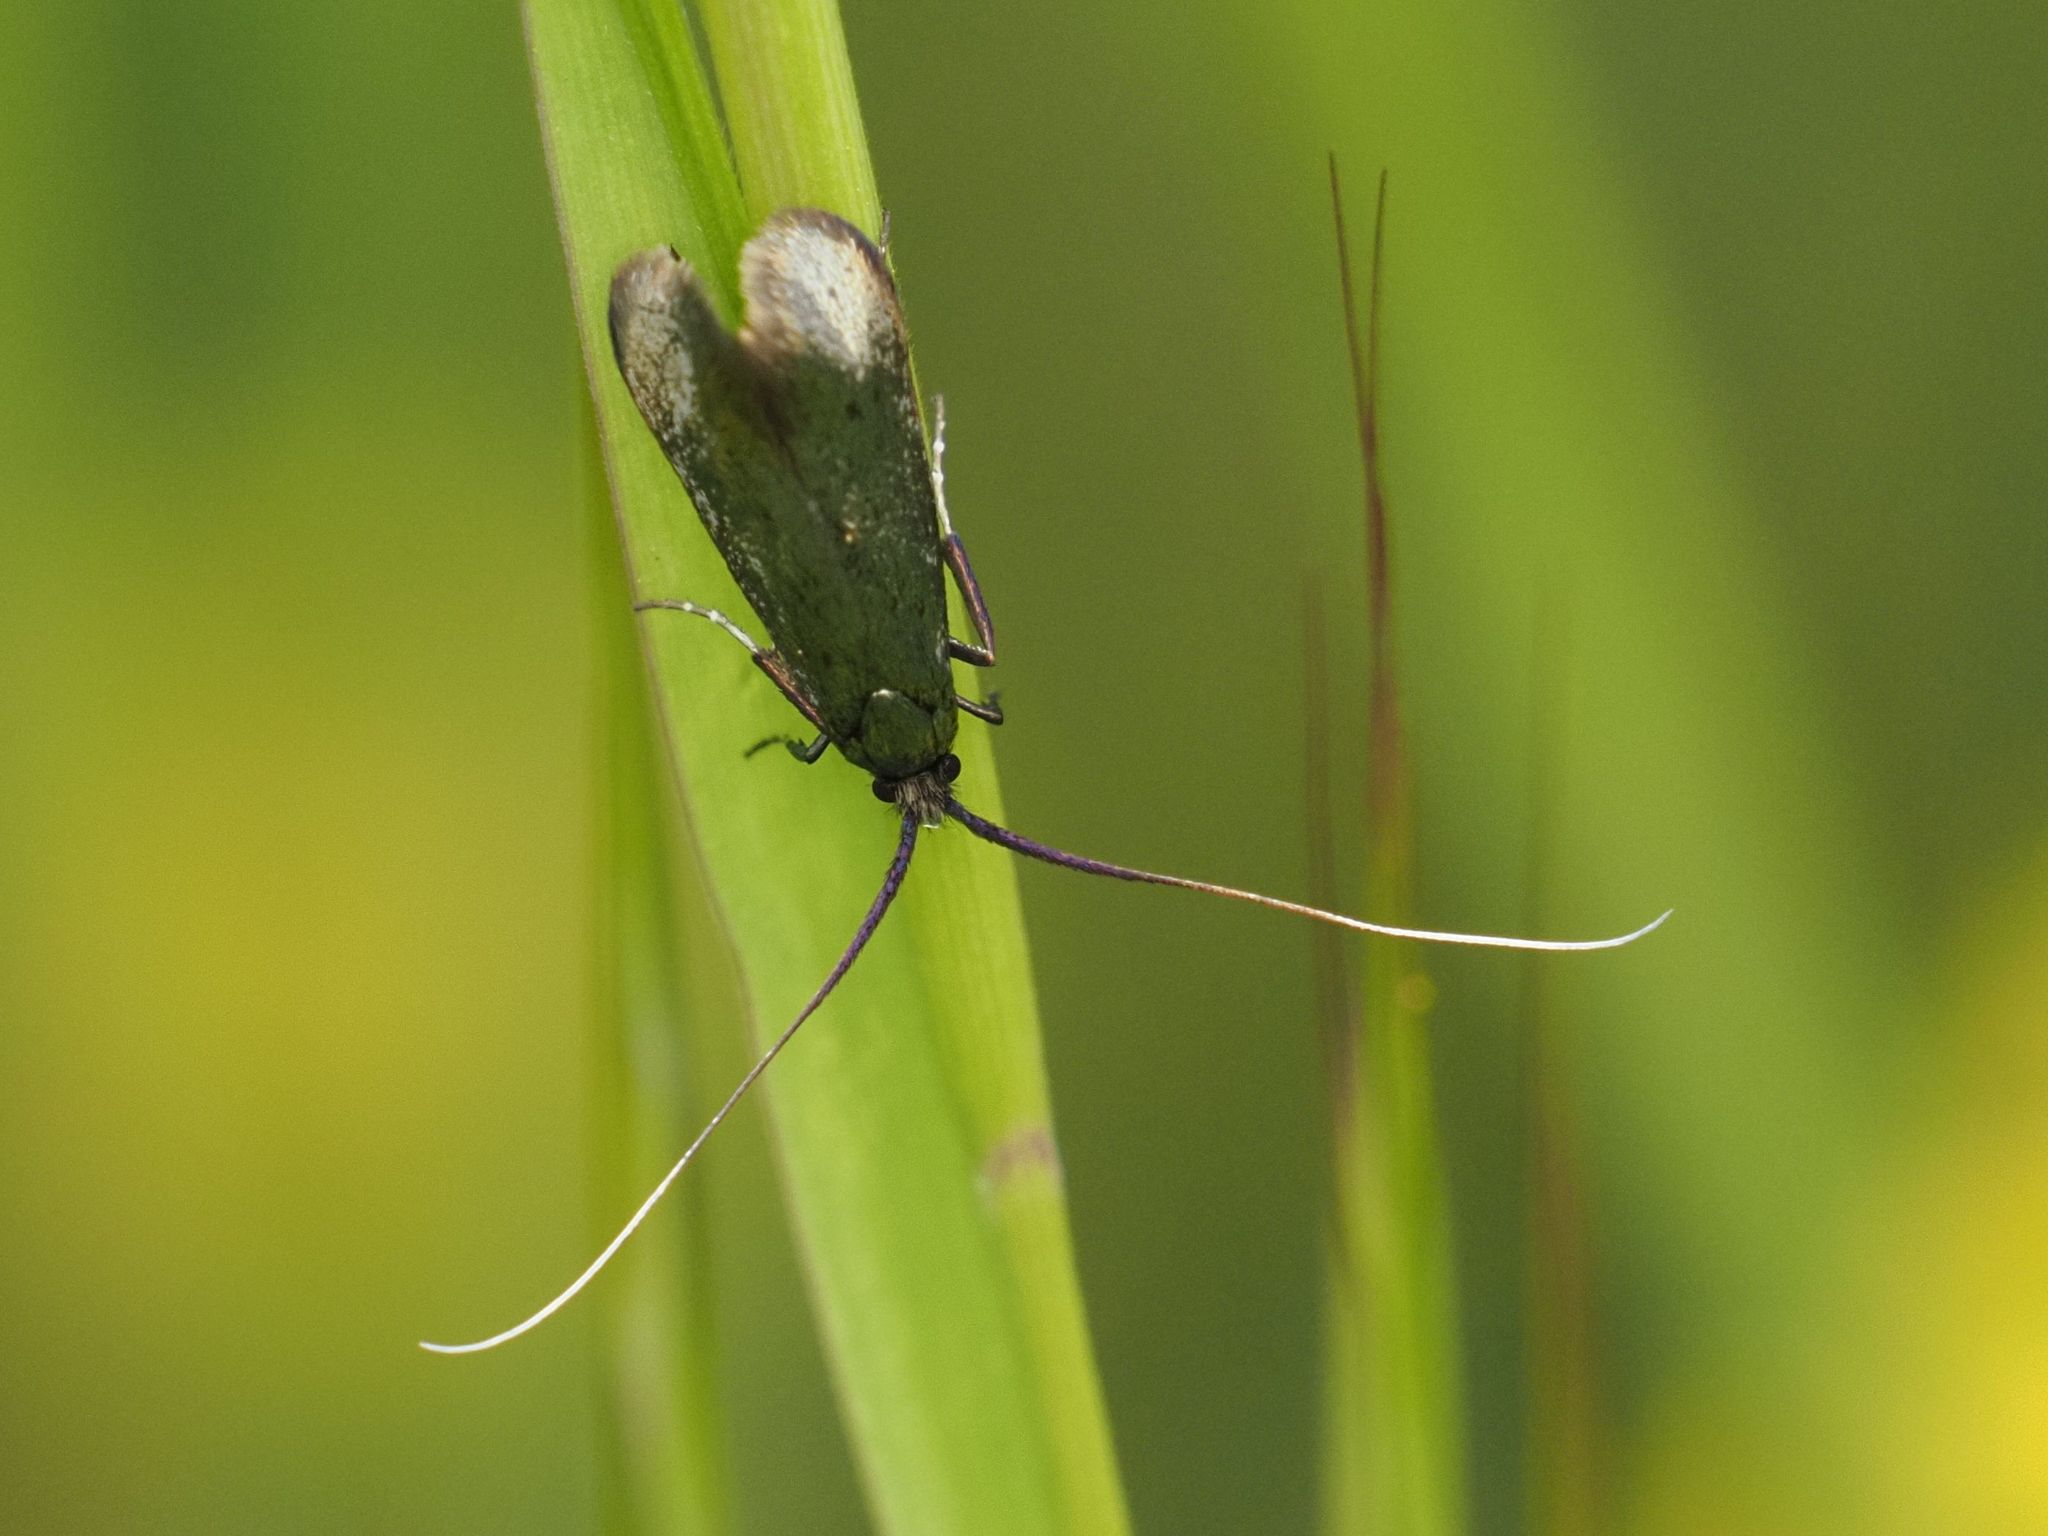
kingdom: Animalia
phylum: Arthropoda
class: Insecta
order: Lepidoptera
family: Adelidae
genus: Adela
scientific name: Adela viridella
